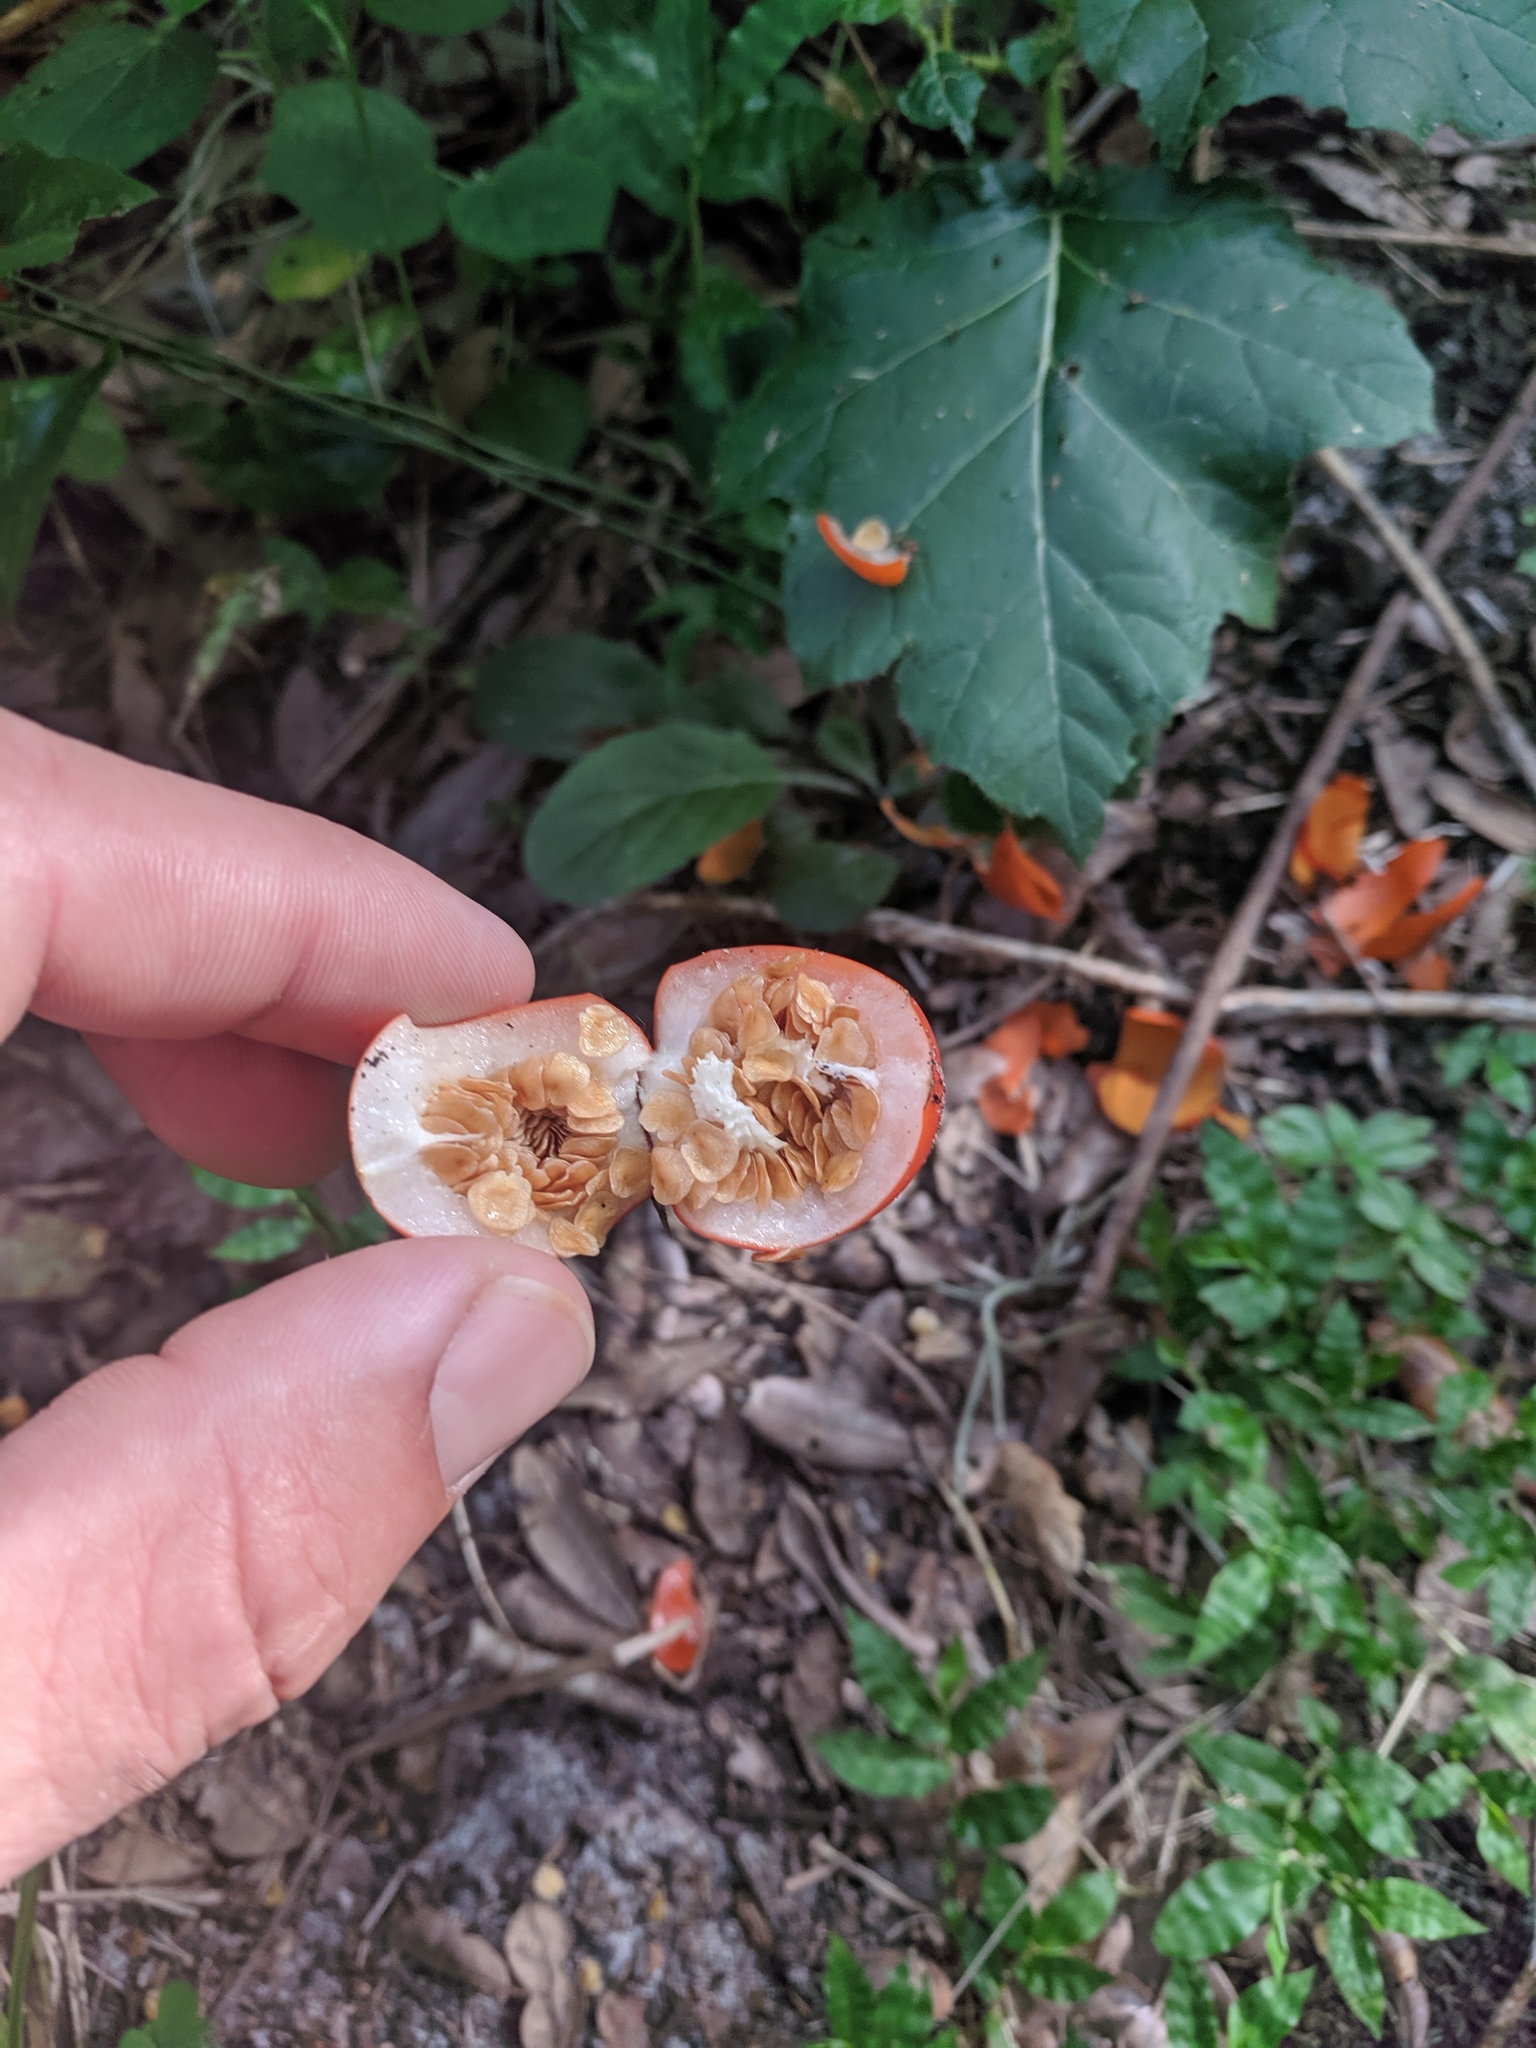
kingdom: Plantae
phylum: Tracheophyta
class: Magnoliopsida
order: Solanales
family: Solanaceae
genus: Solanum
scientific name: Solanum capsicoides
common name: Cockroach berry
